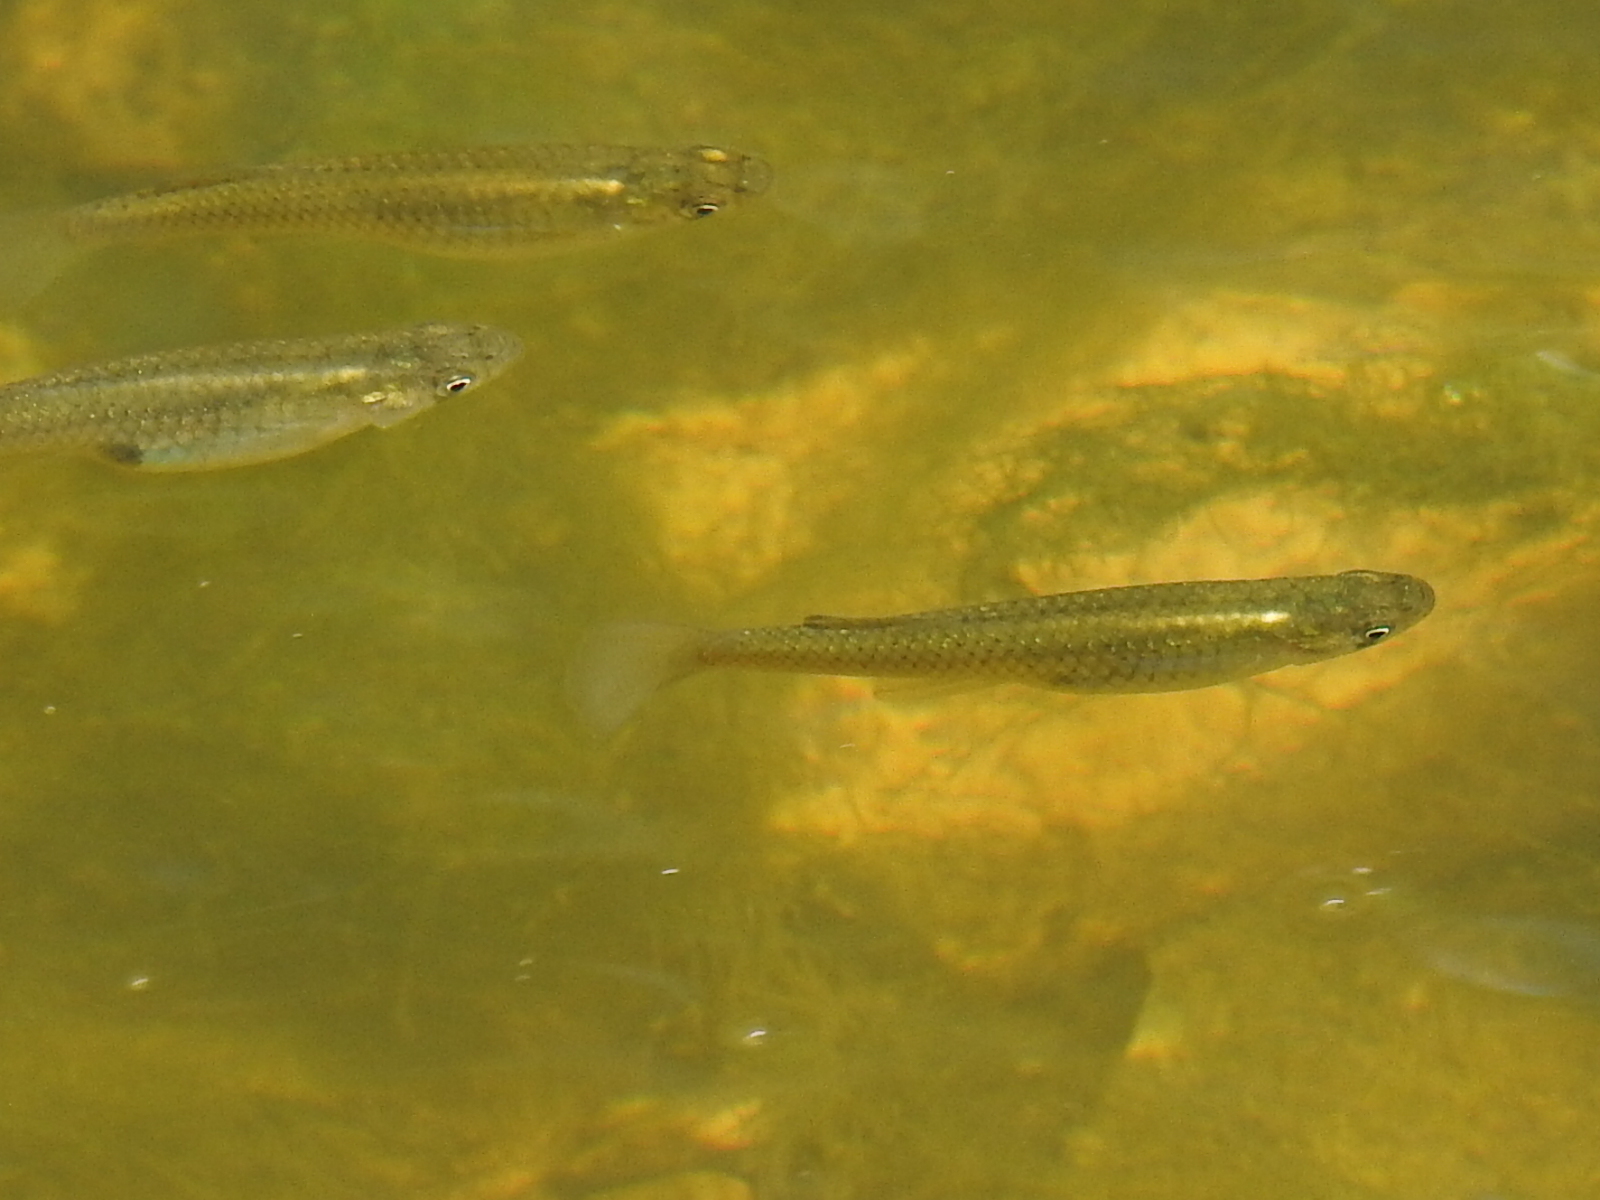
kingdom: Animalia
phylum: Chordata
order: Cyprinodontiformes
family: Poeciliidae
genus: Gambusia
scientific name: Gambusia affinis
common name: Mosquitofish
